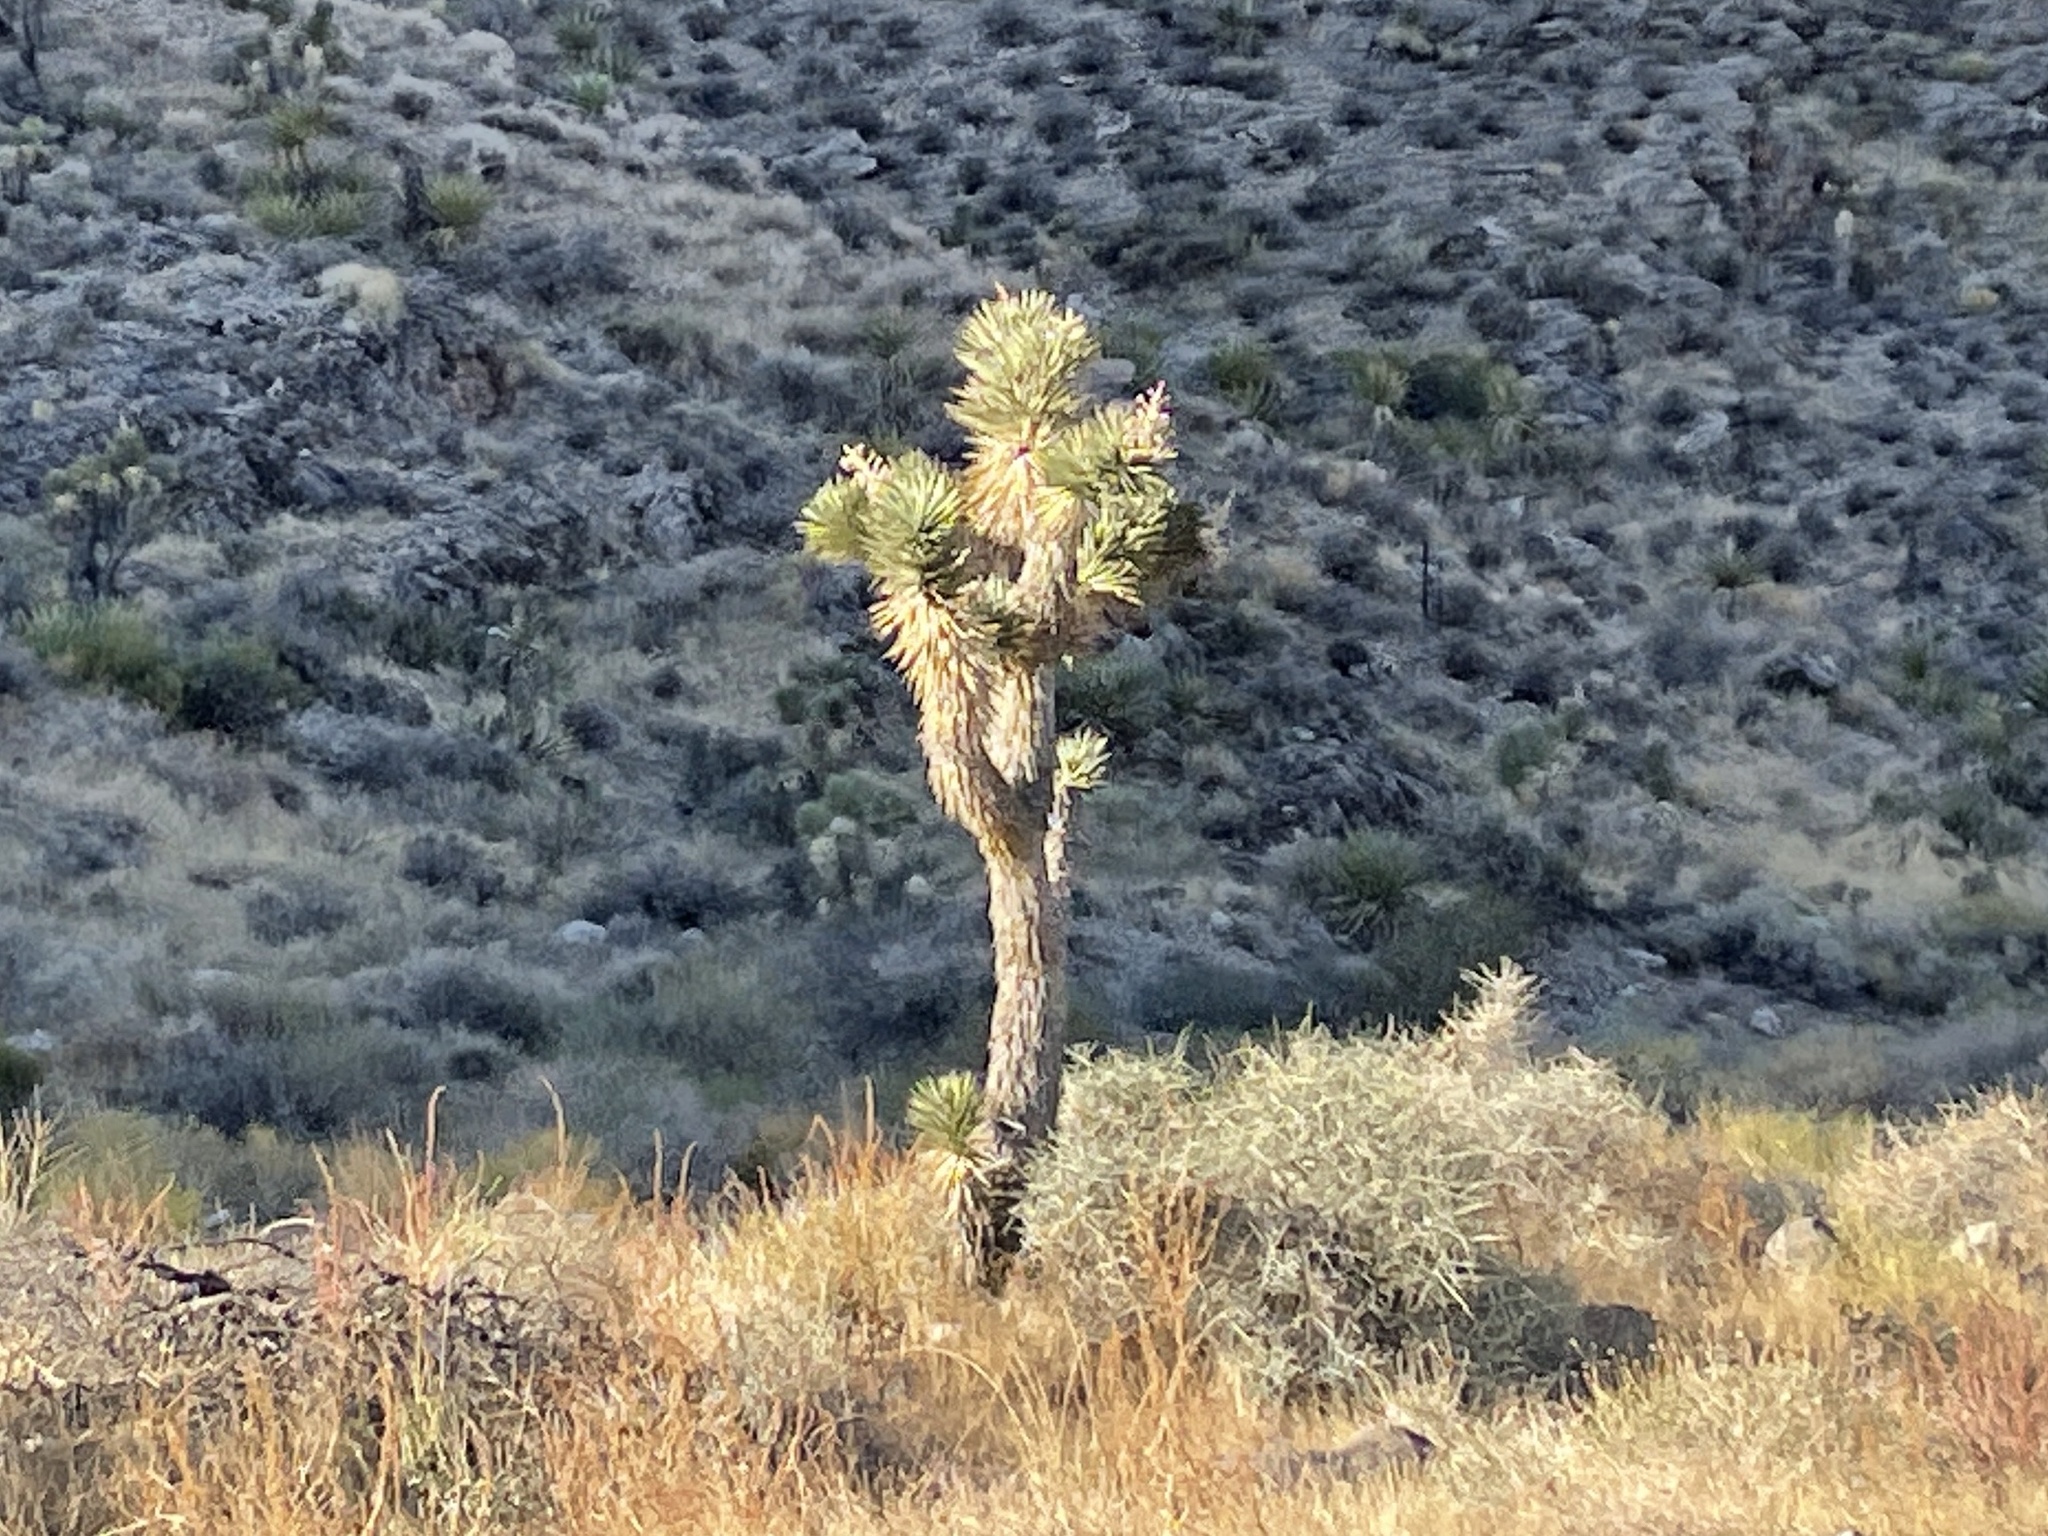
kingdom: Plantae
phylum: Tracheophyta
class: Liliopsida
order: Asparagales
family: Asparagaceae
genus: Yucca
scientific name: Yucca brevifolia
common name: Joshua tree
